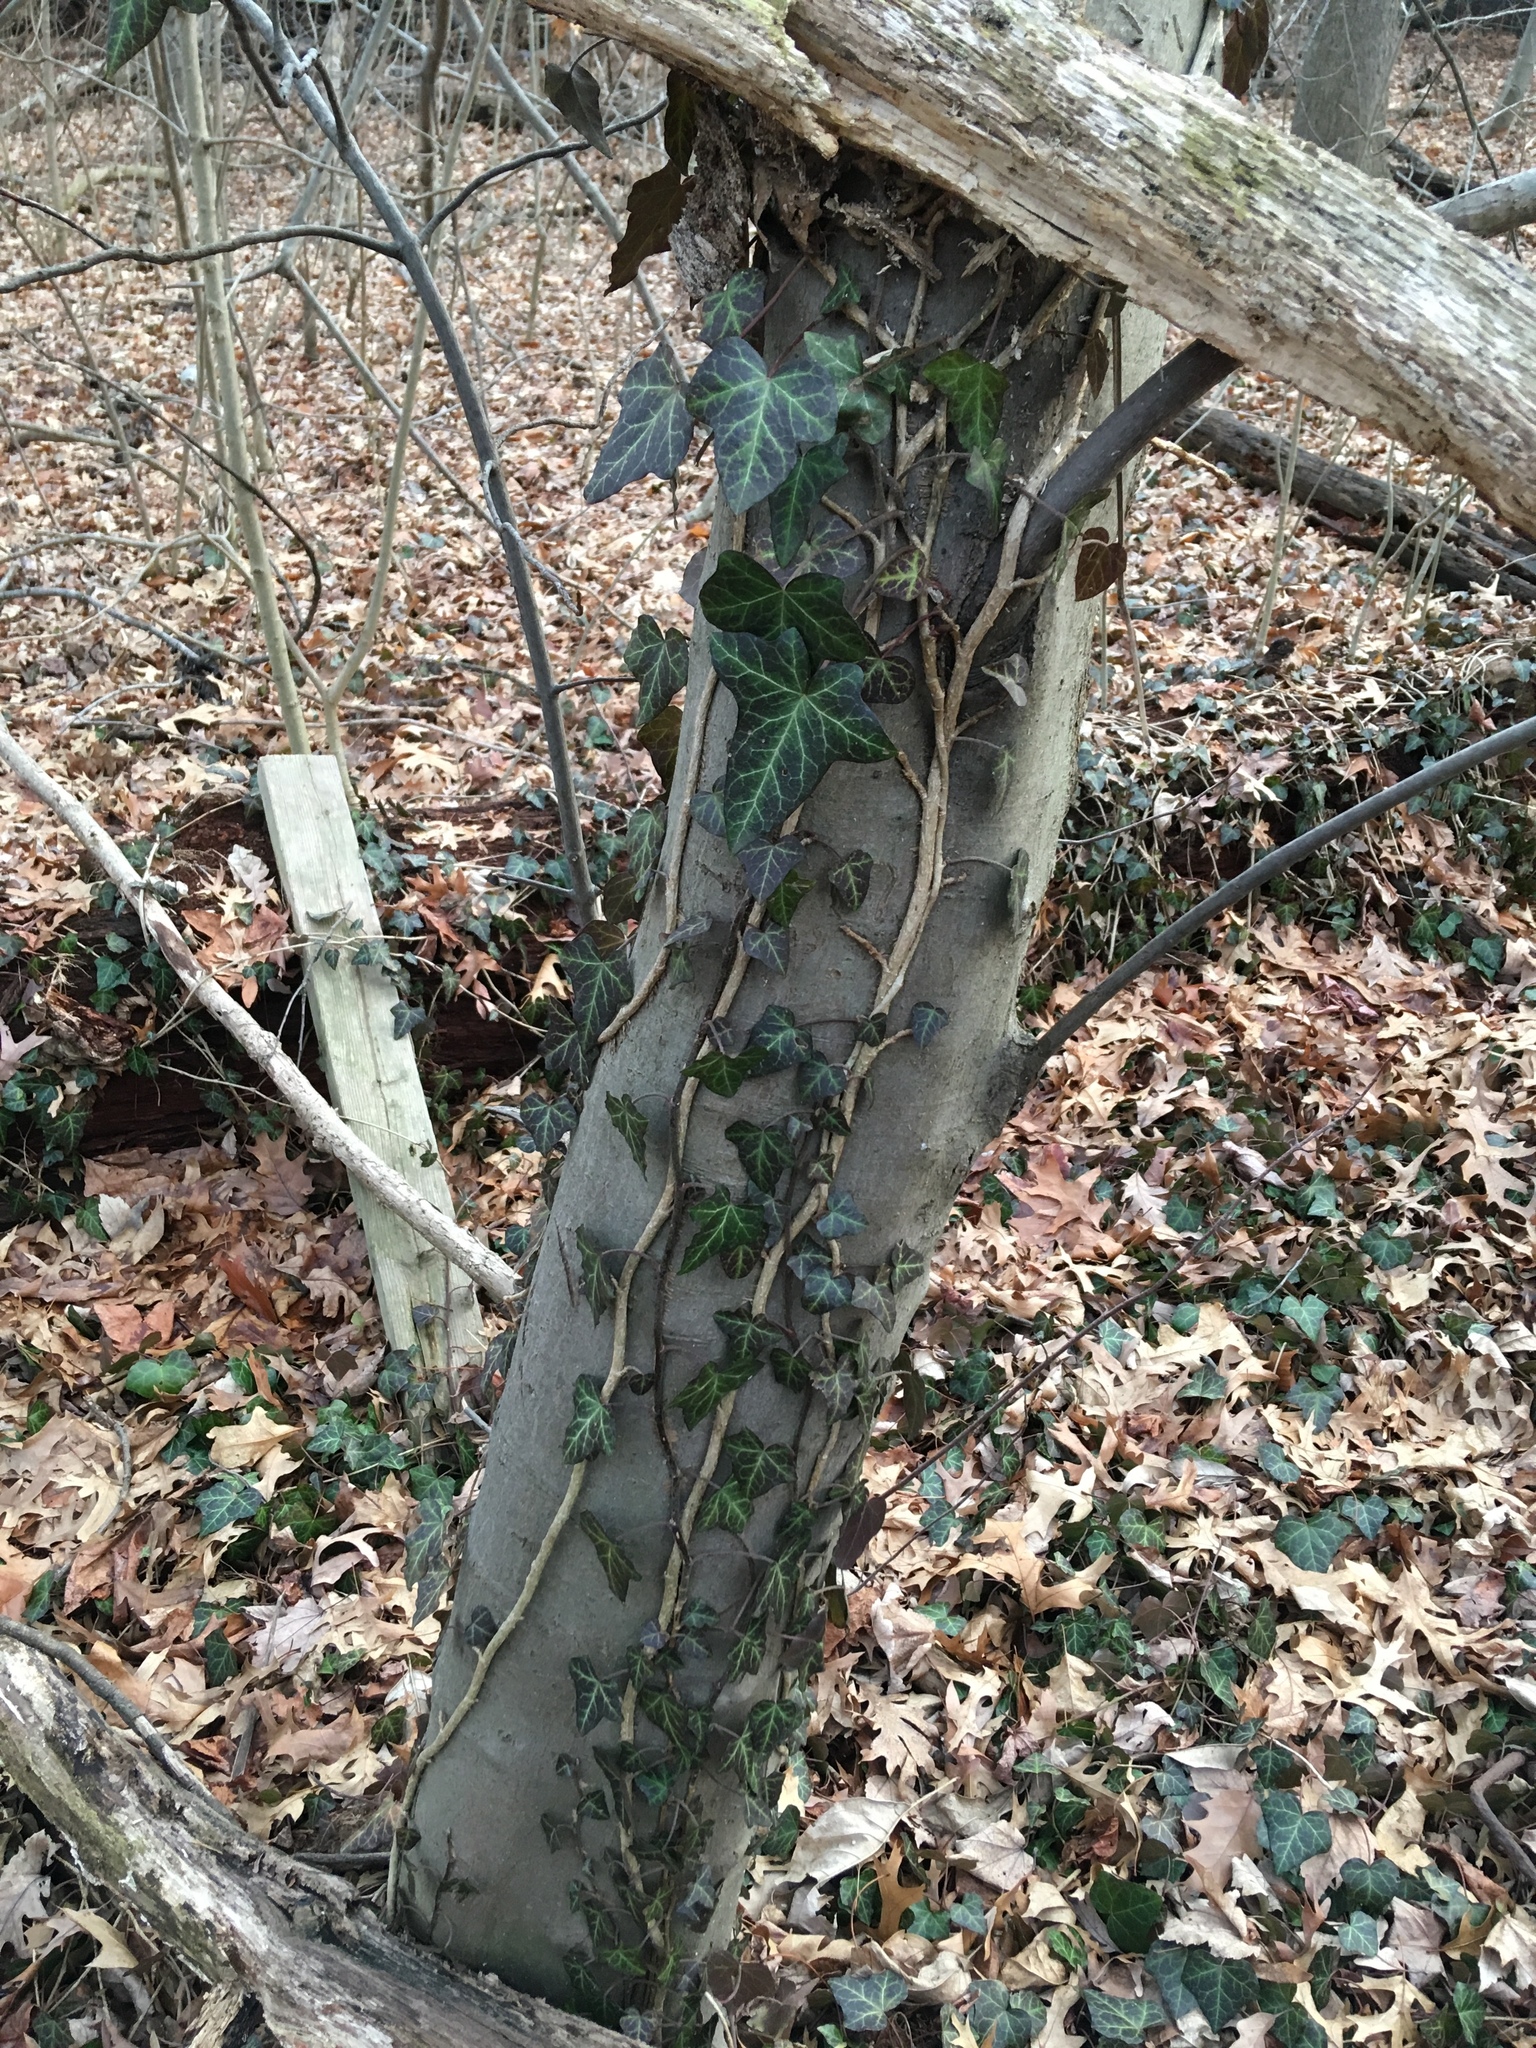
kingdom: Plantae
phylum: Tracheophyta
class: Magnoliopsida
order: Apiales
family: Araliaceae
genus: Hedera
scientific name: Hedera helix
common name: Ivy
